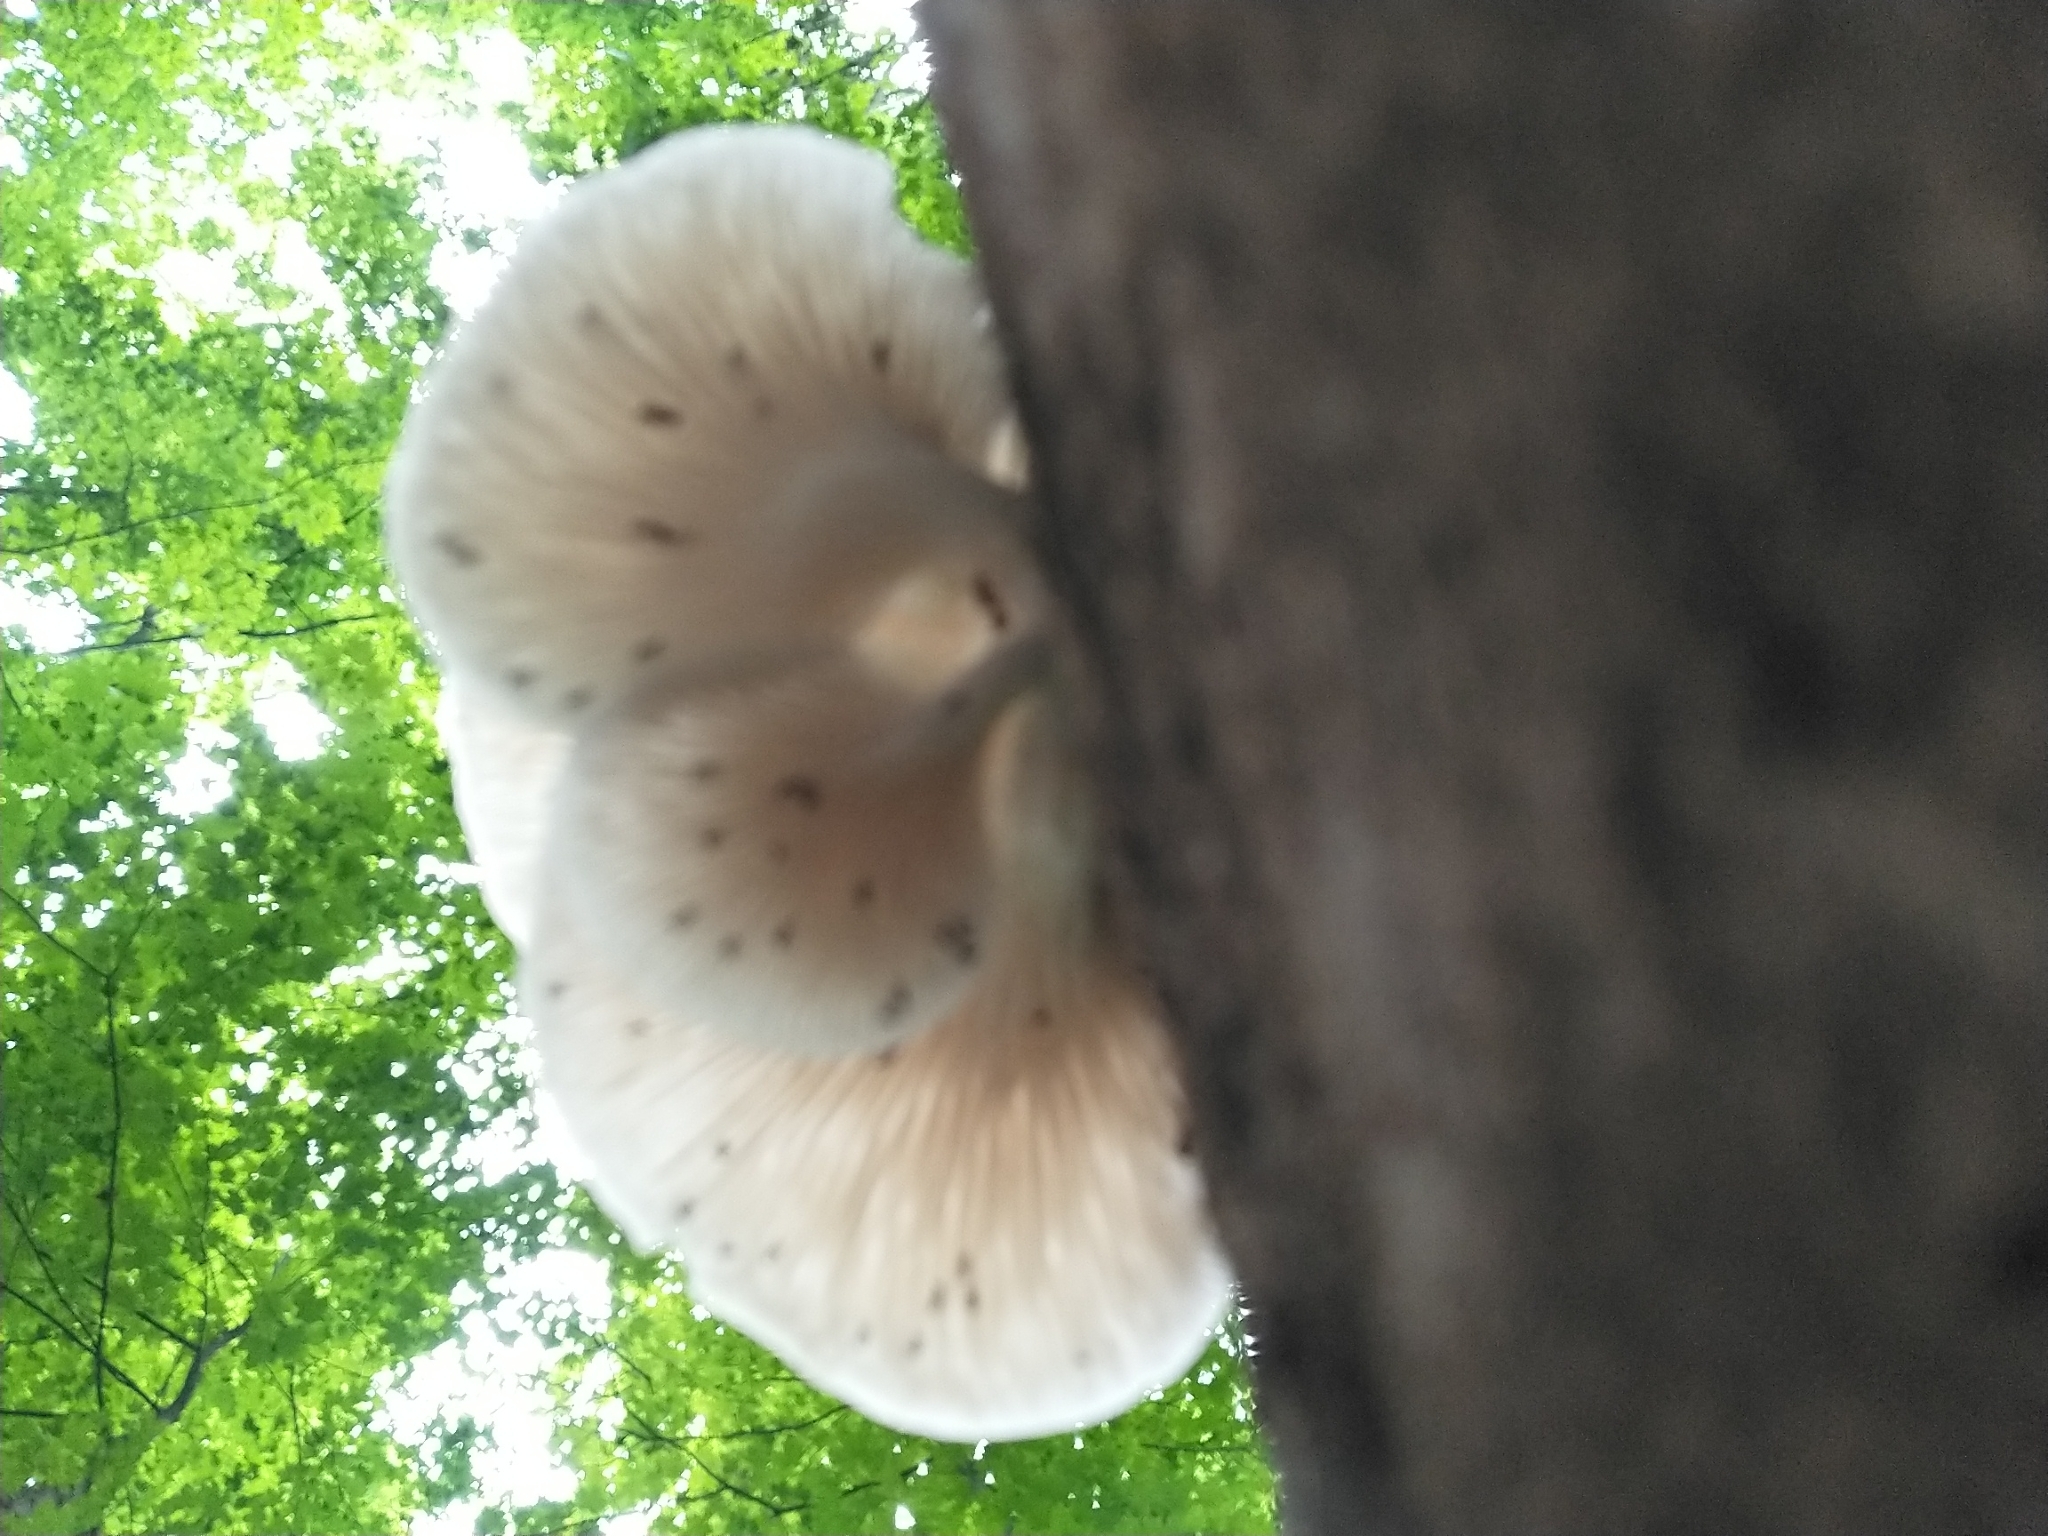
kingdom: Fungi
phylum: Basidiomycota
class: Agaricomycetes
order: Agaricales
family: Pleurotaceae
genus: Pleurotus
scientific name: Pleurotus pulmonarius
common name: Pale oyster
